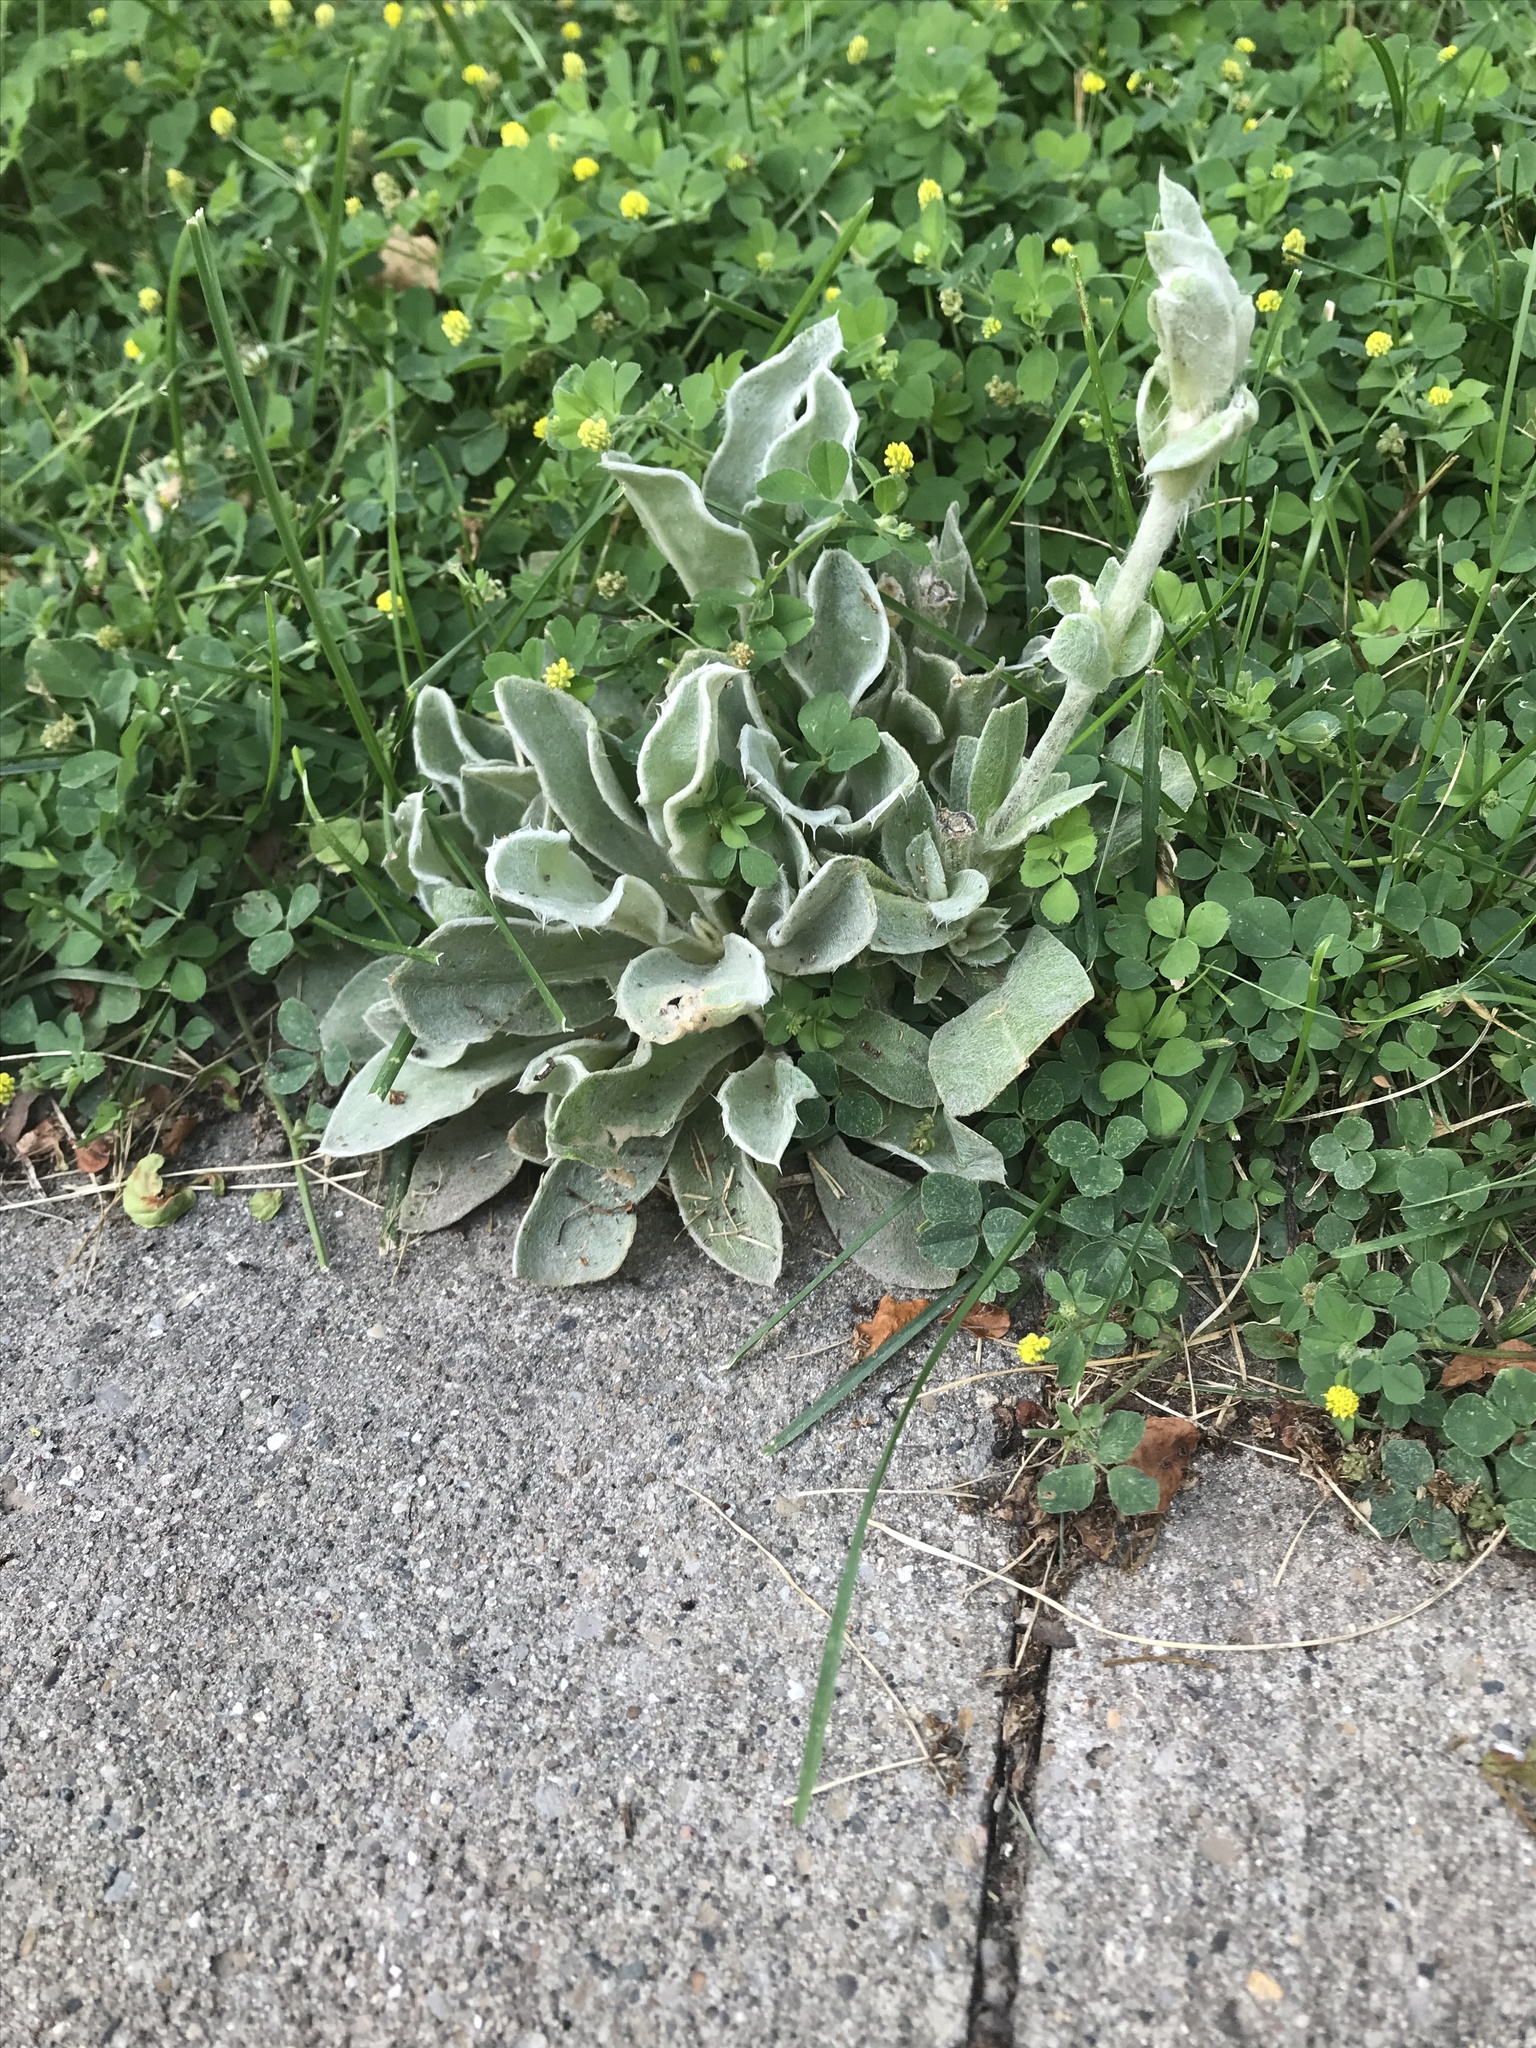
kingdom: Plantae
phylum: Tracheophyta
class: Magnoliopsida
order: Caryophyllales
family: Caryophyllaceae
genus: Silene
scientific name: Silene coronaria
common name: Rose campion
